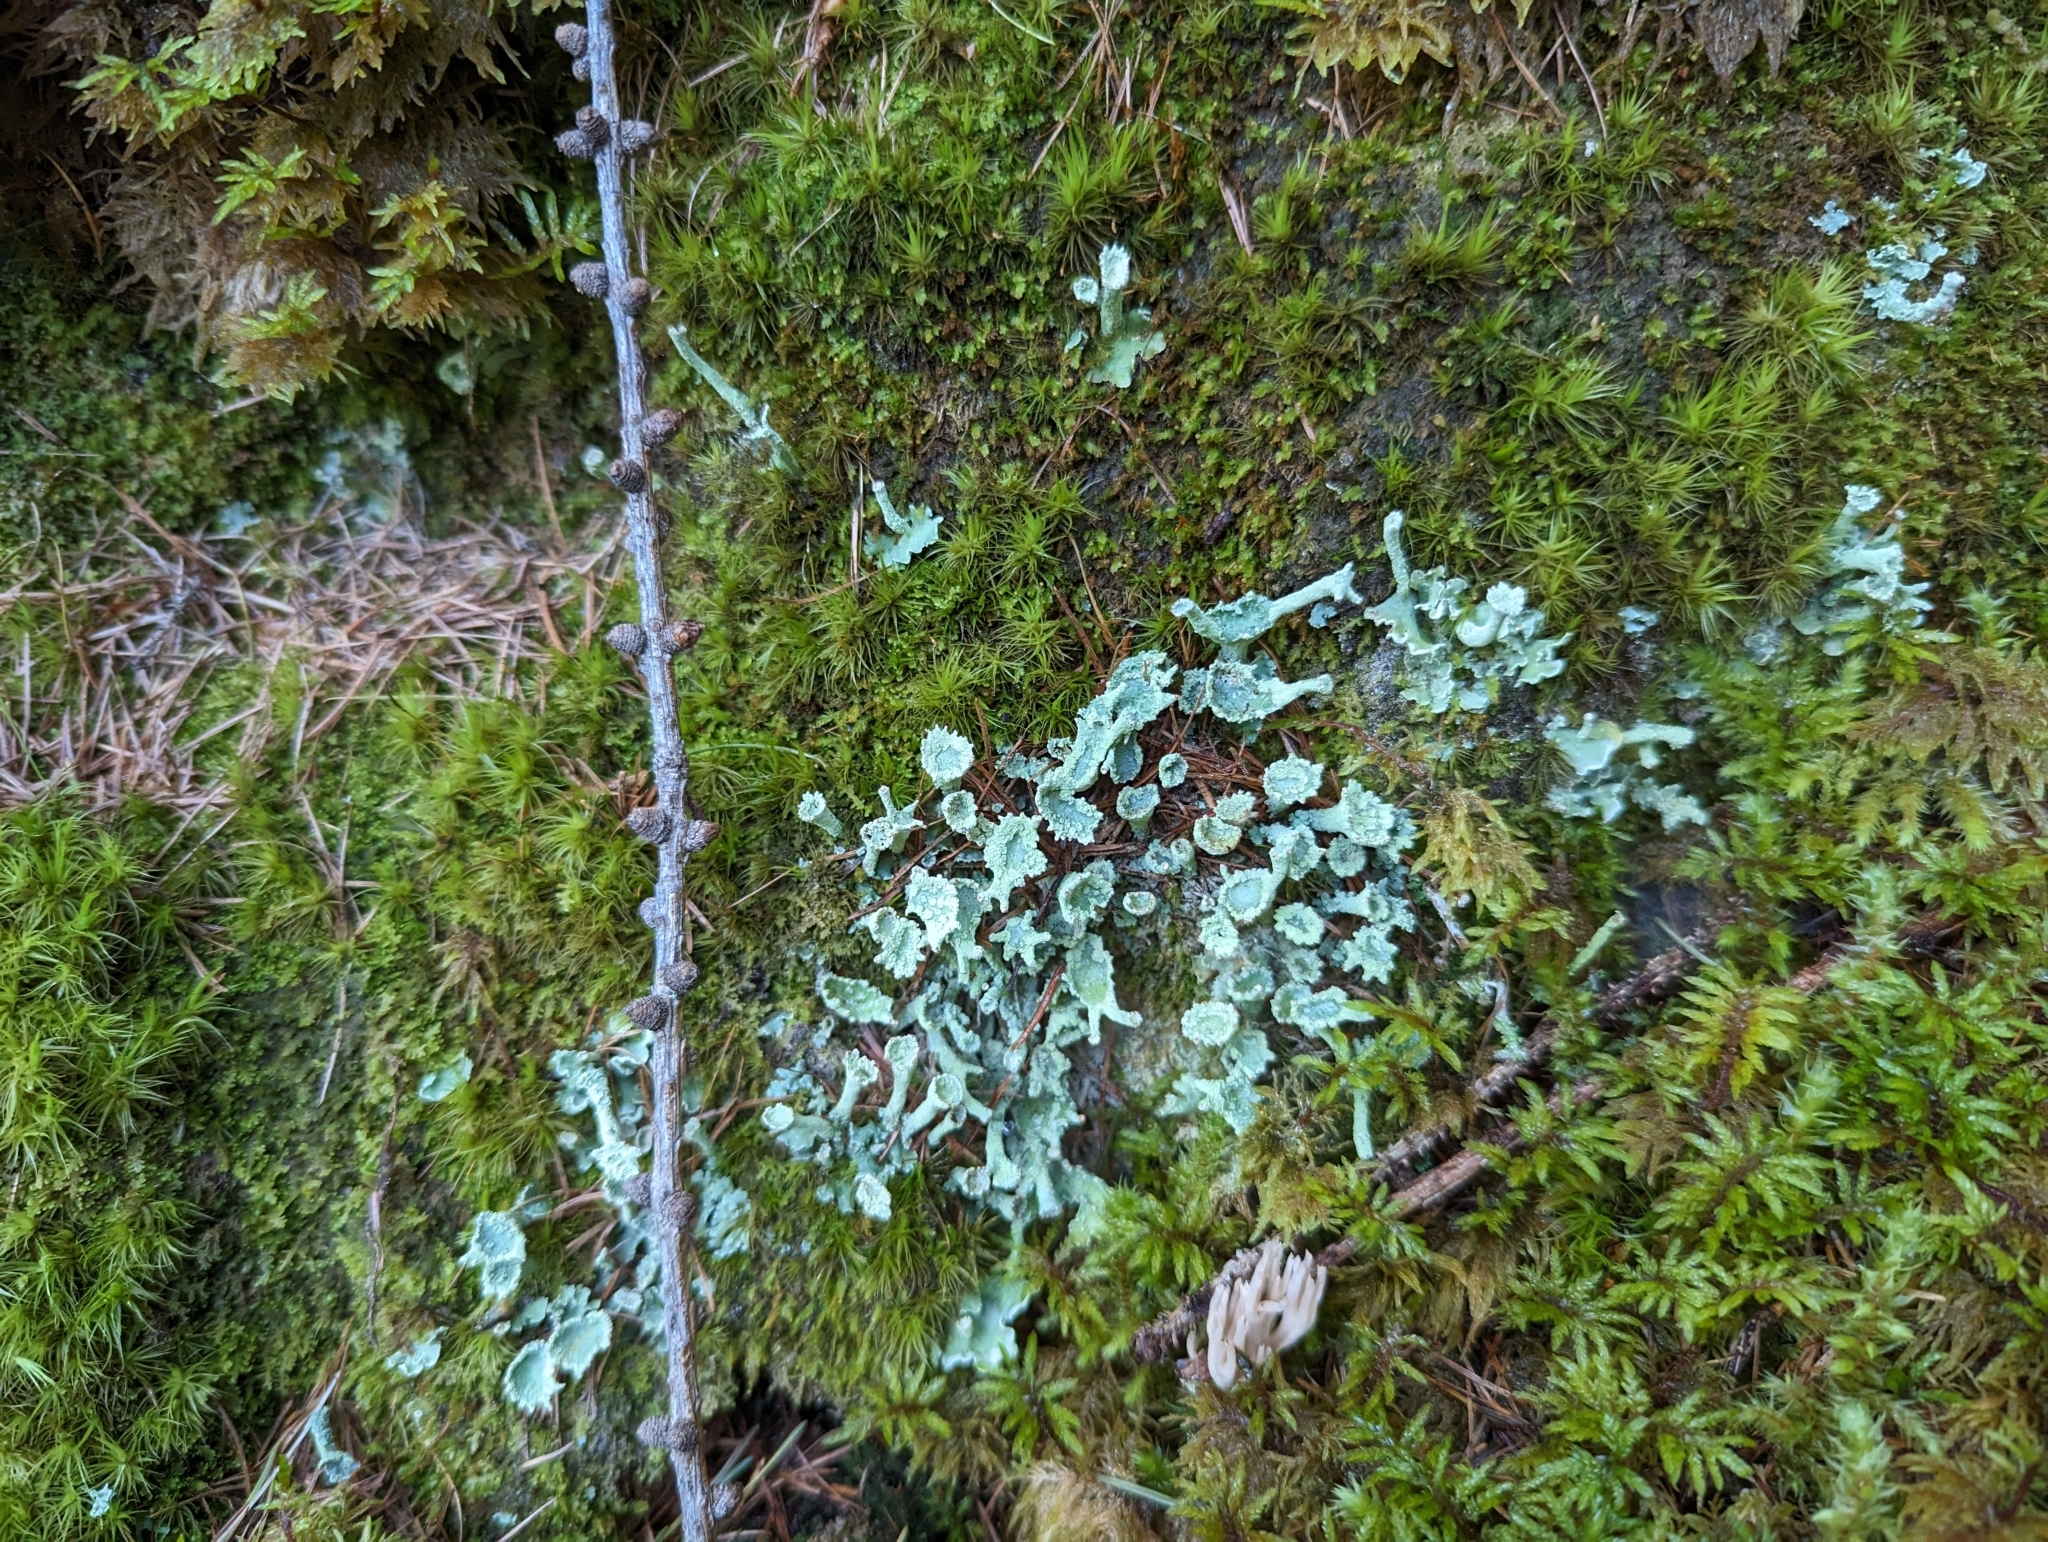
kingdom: Fungi
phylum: Ascomycota
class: Lecanoromycetes
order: Lecanorales
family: Cladoniaceae
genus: Cladonia
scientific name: Cladonia digitata
